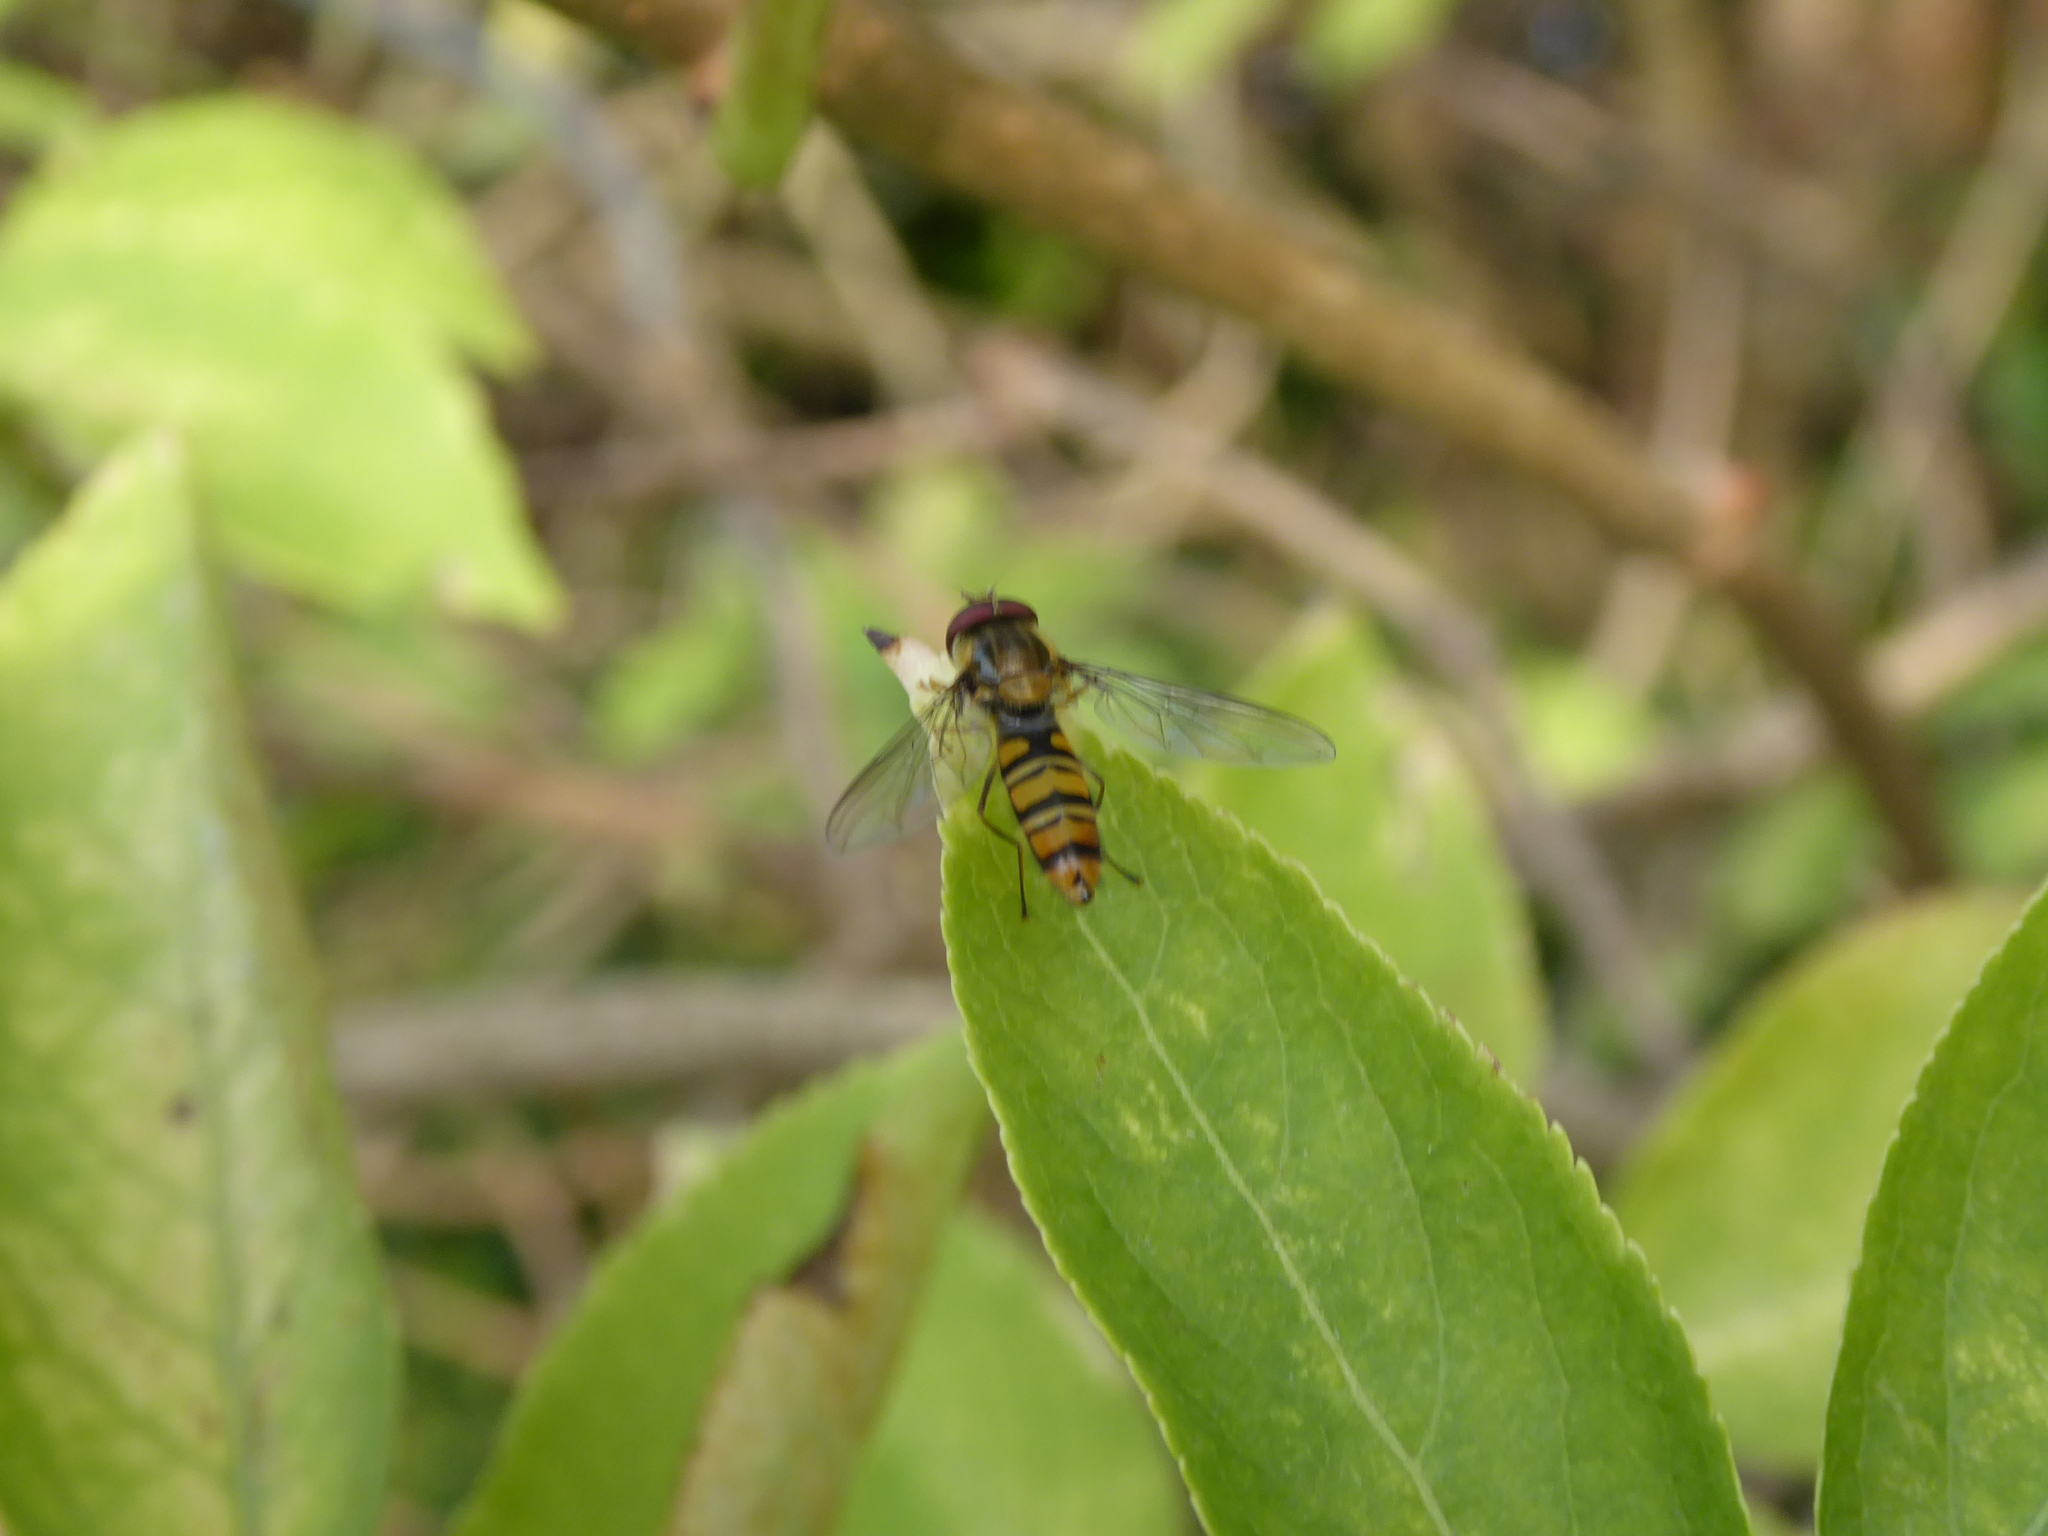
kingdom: Animalia
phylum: Arthropoda
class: Insecta
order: Diptera
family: Syrphidae
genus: Episyrphus
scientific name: Episyrphus balteatus
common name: Marmalade hoverfly
